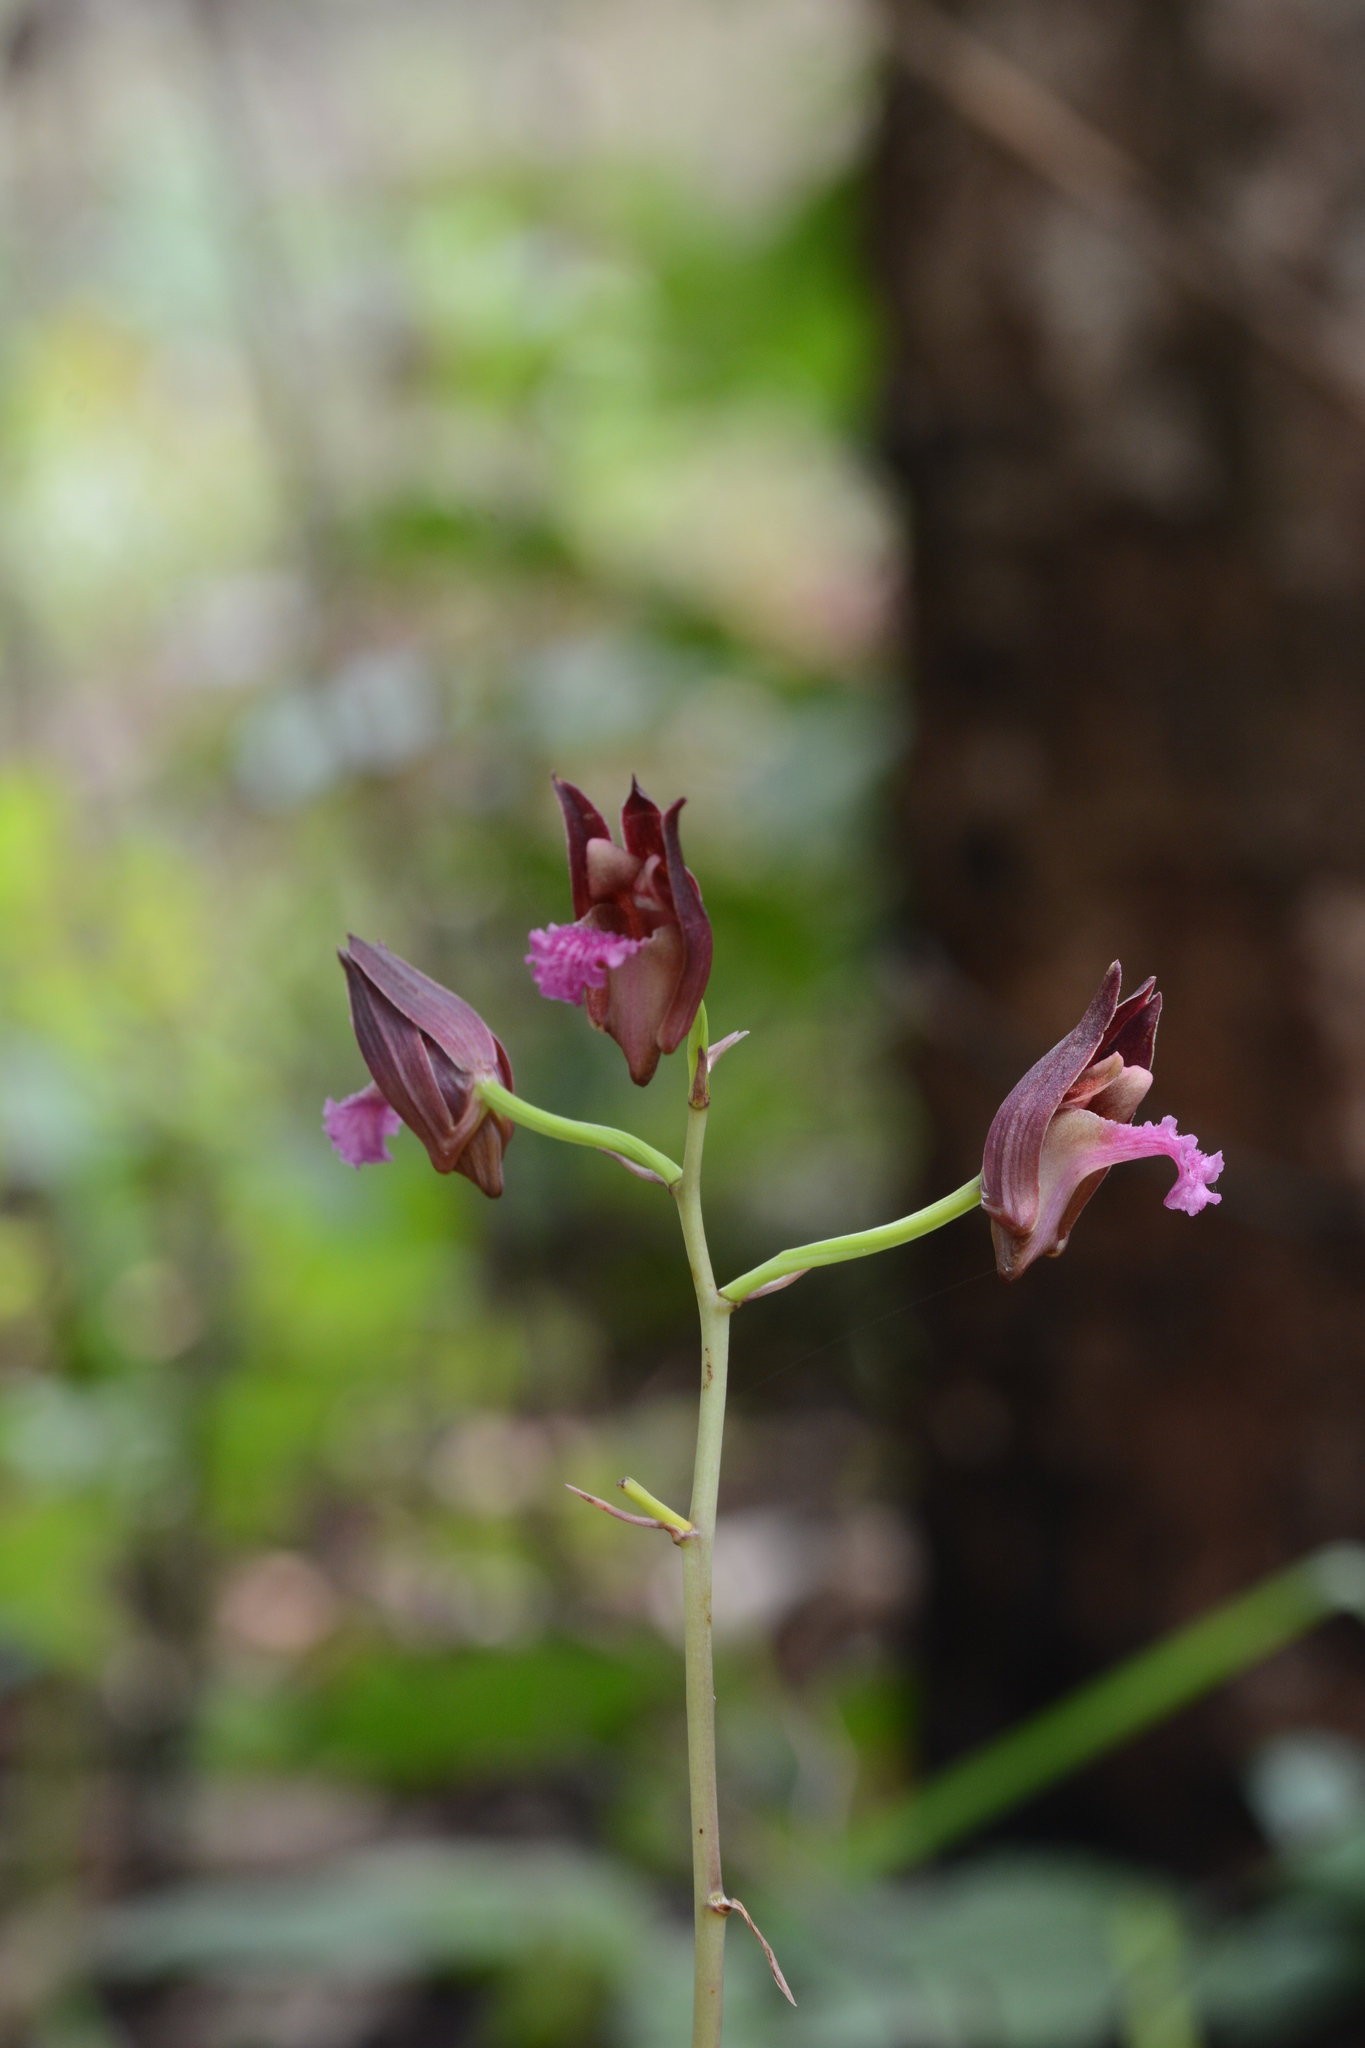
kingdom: Plantae
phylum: Tracheophyta
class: Liliopsida
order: Asparagales
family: Orchidaceae
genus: Eulophia
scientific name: Eulophia nuda
